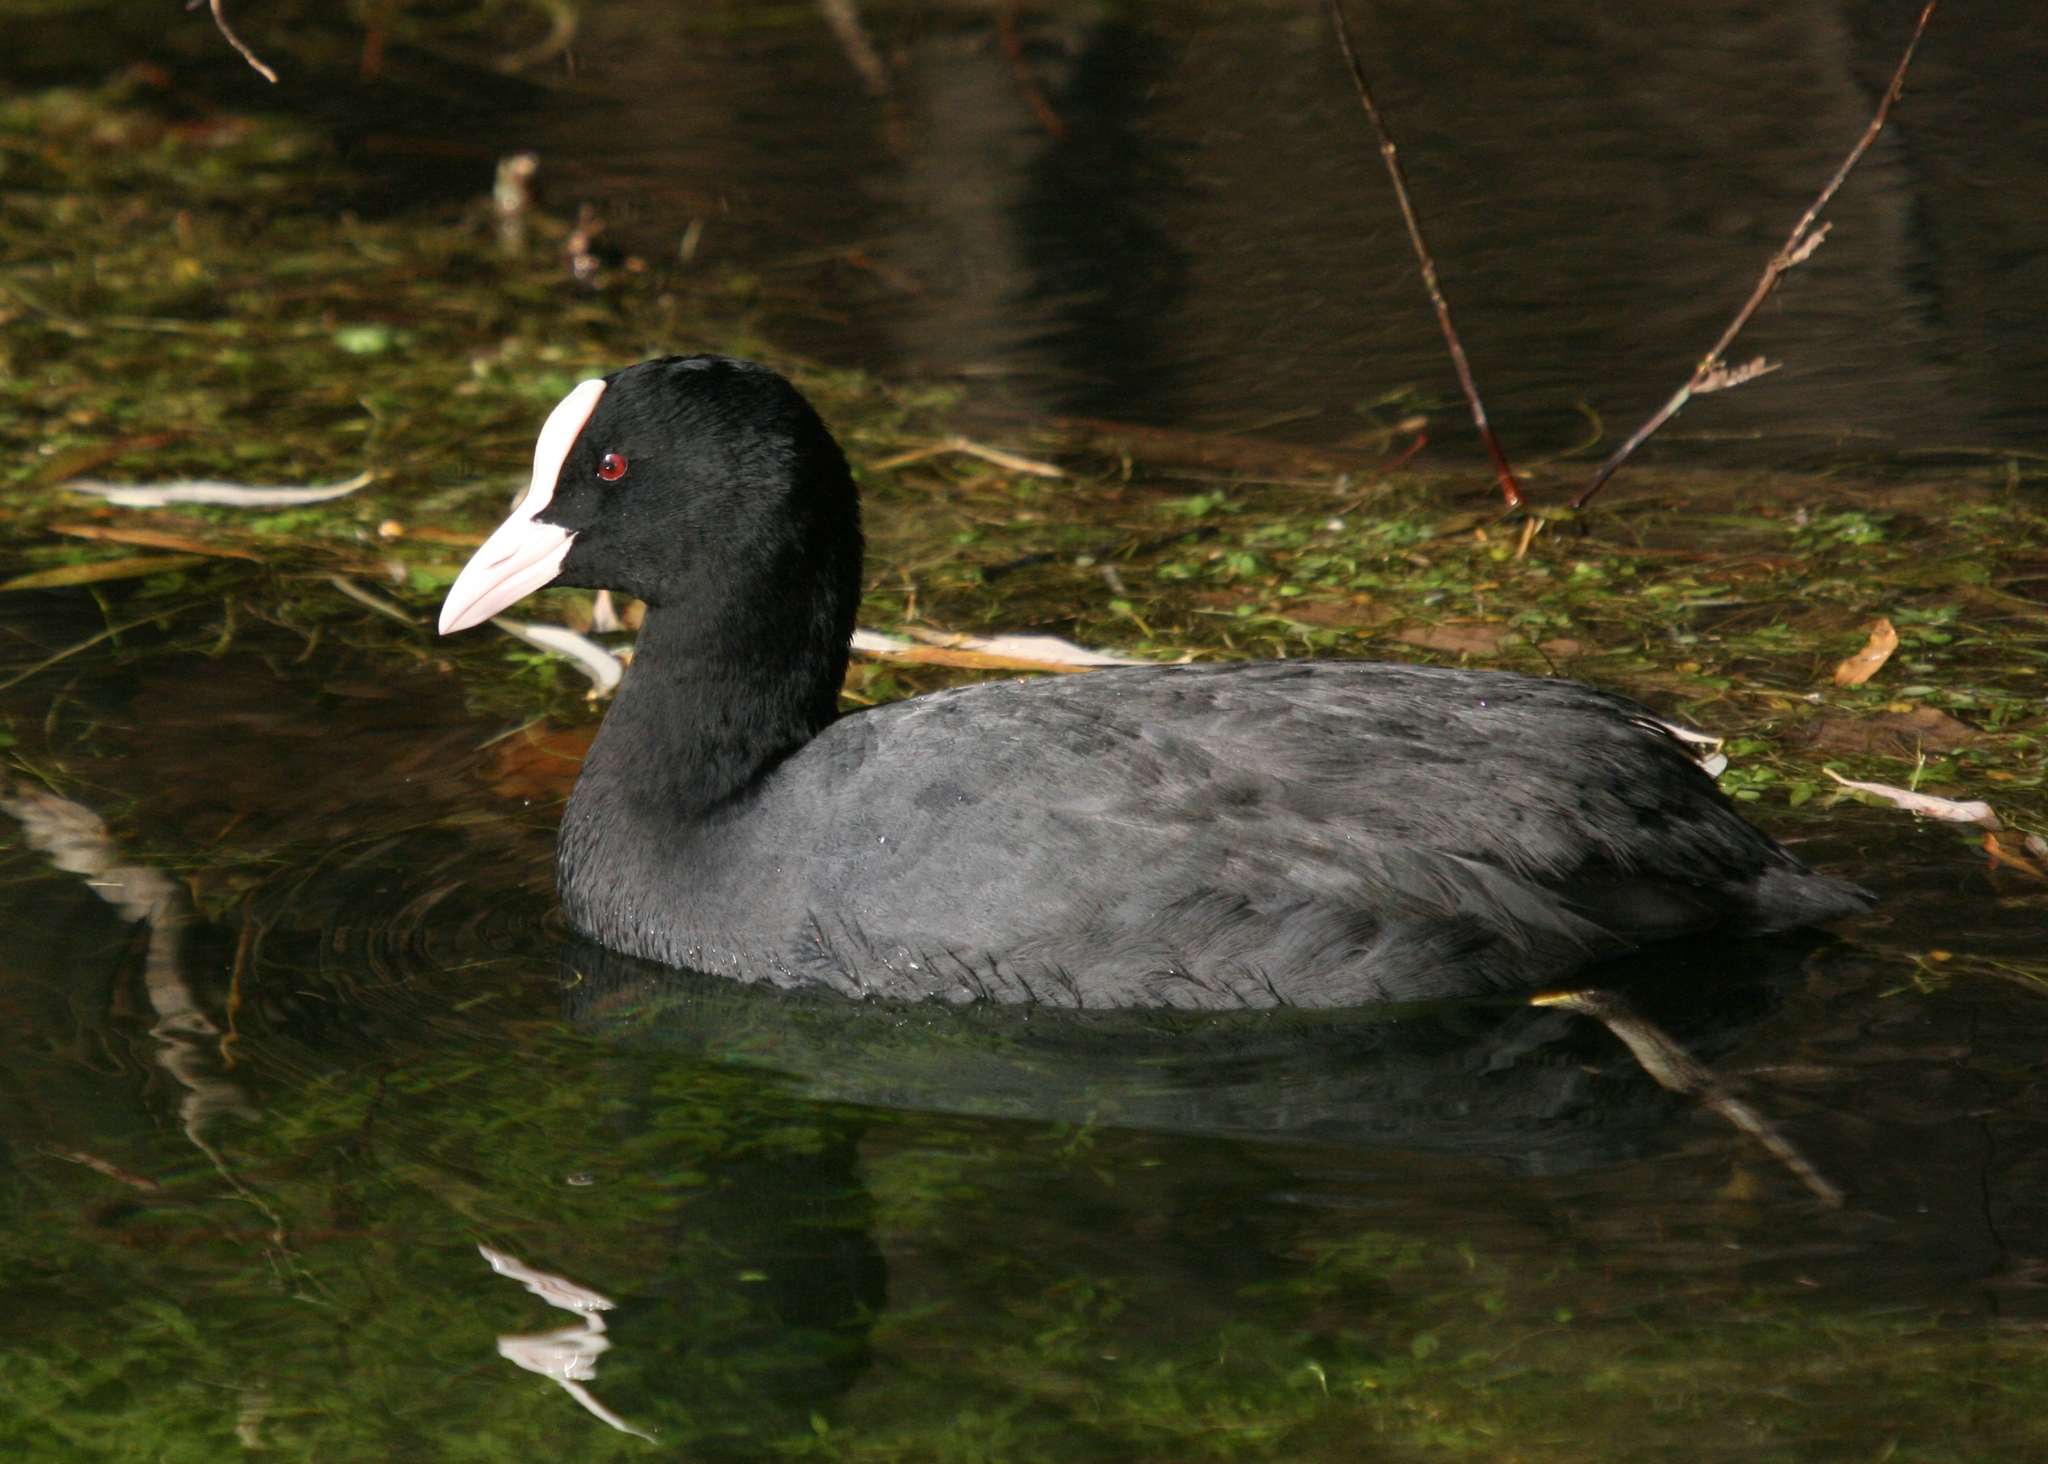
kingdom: Animalia
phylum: Chordata
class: Aves
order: Gruiformes
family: Rallidae
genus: Fulica
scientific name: Fulica atra
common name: Eurasian coot
